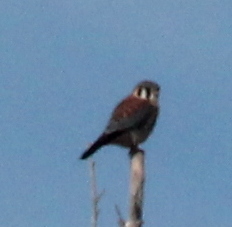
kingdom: Animalia
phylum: Chordata
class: Aves
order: Falconiformes
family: Falconidae
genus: Falco
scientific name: Falco sparverius
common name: American kestrel
